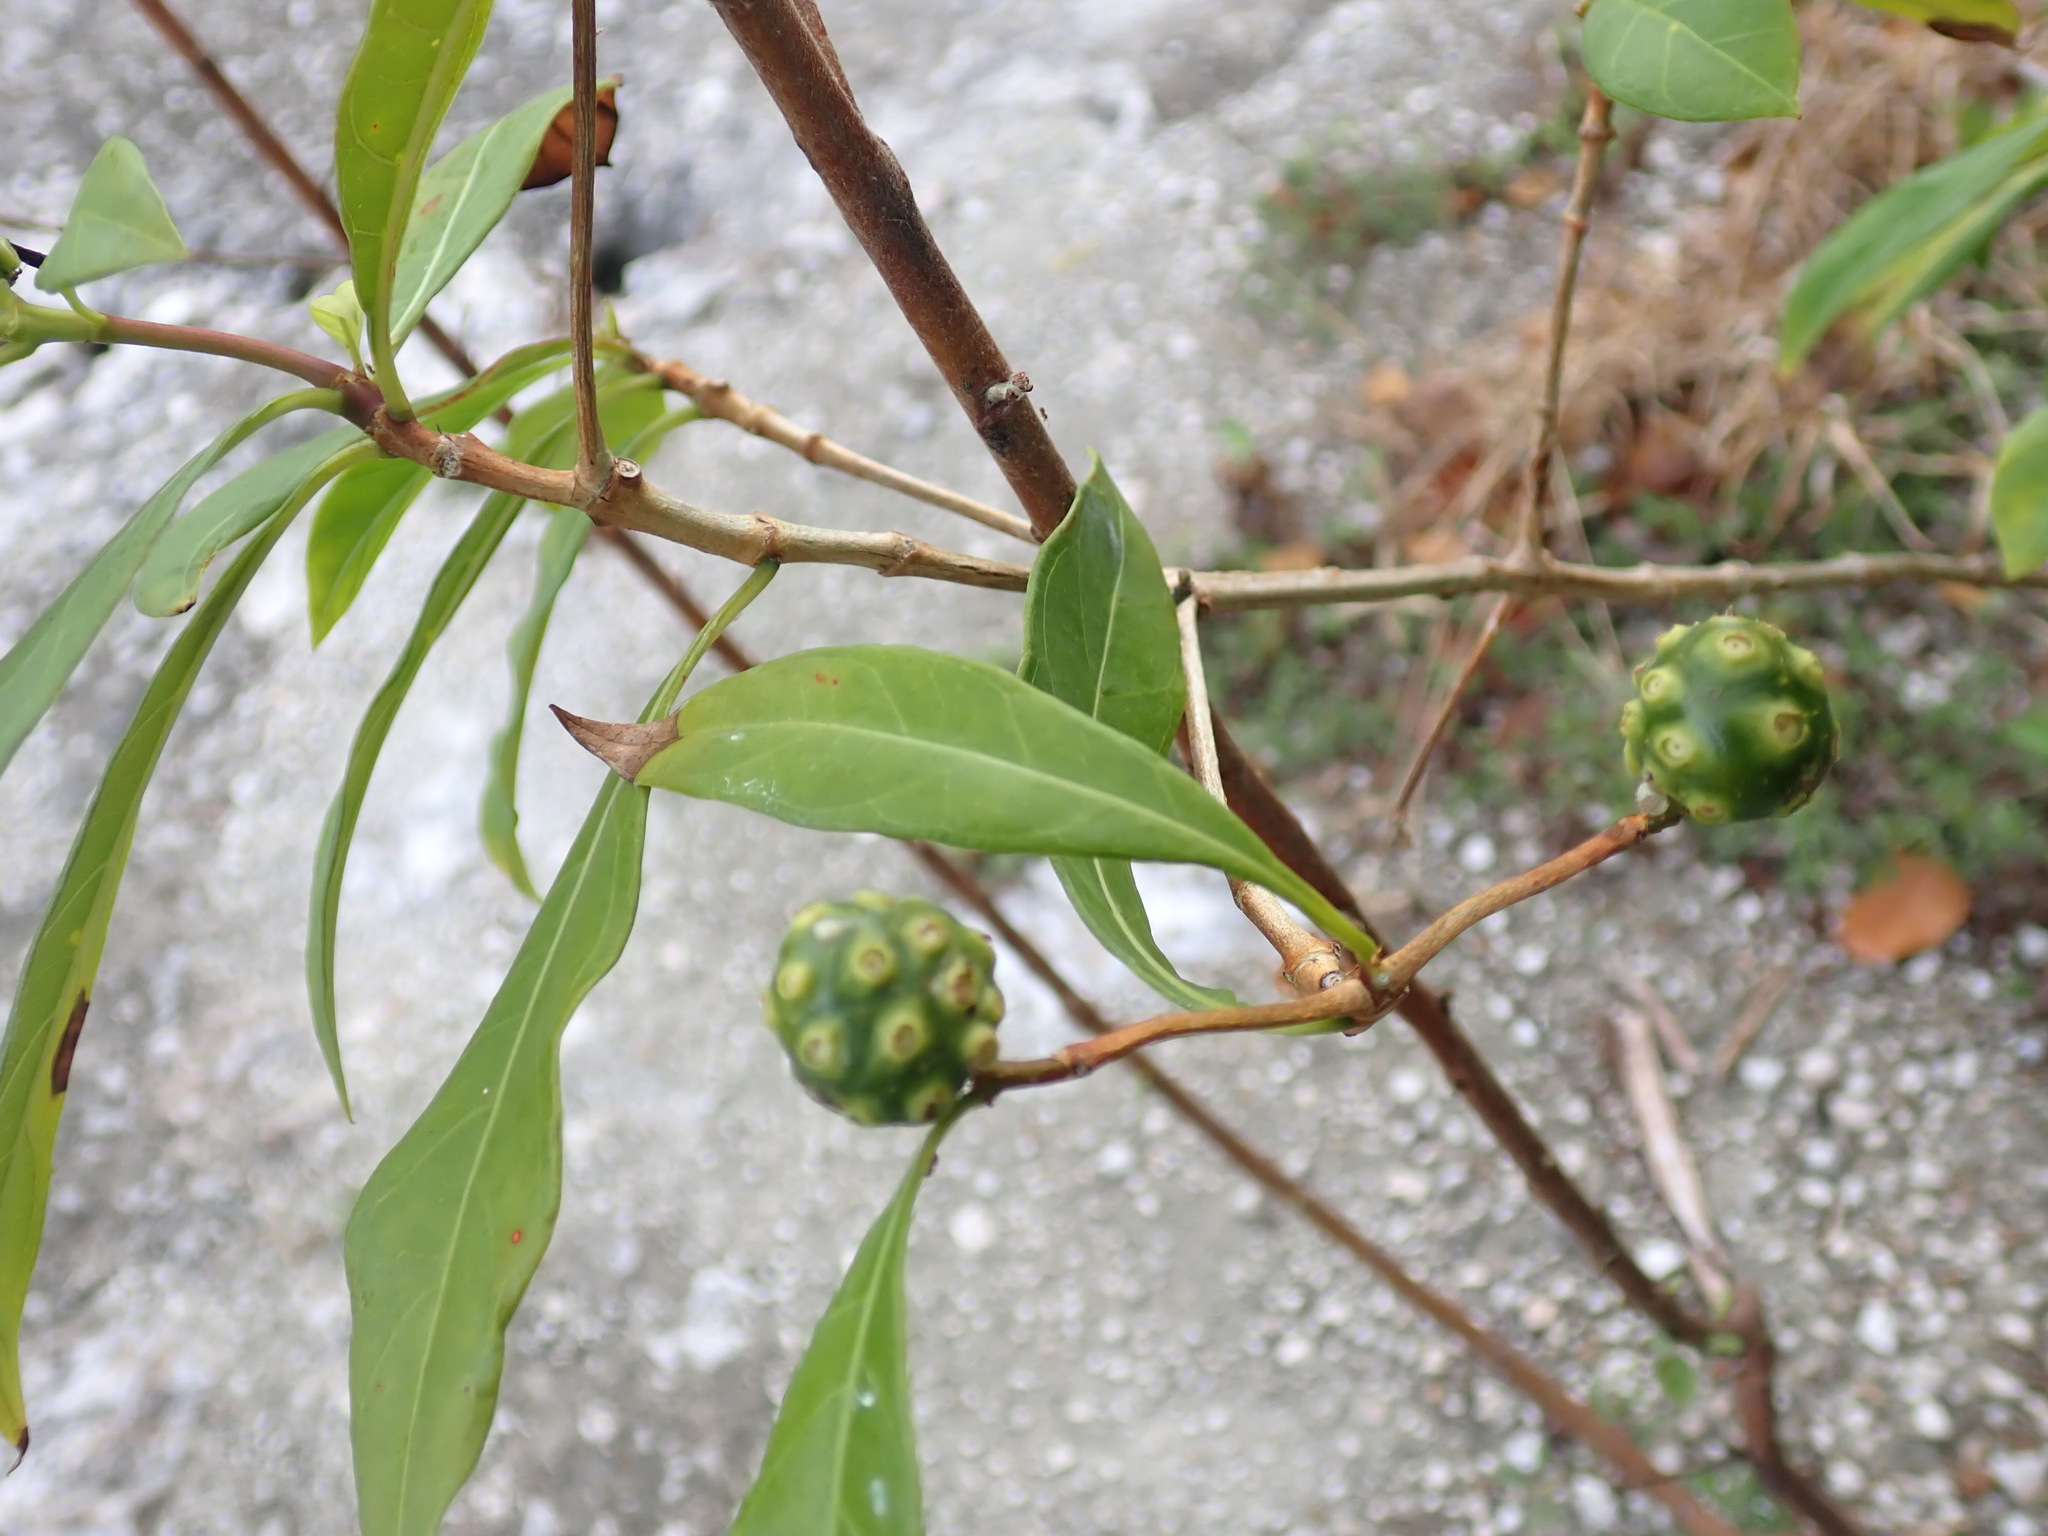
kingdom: Plantae
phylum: Tracheophyta
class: Magnoliopsida
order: Gentianales
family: Rubiaceae
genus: Morinda
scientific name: Morinda royoc
